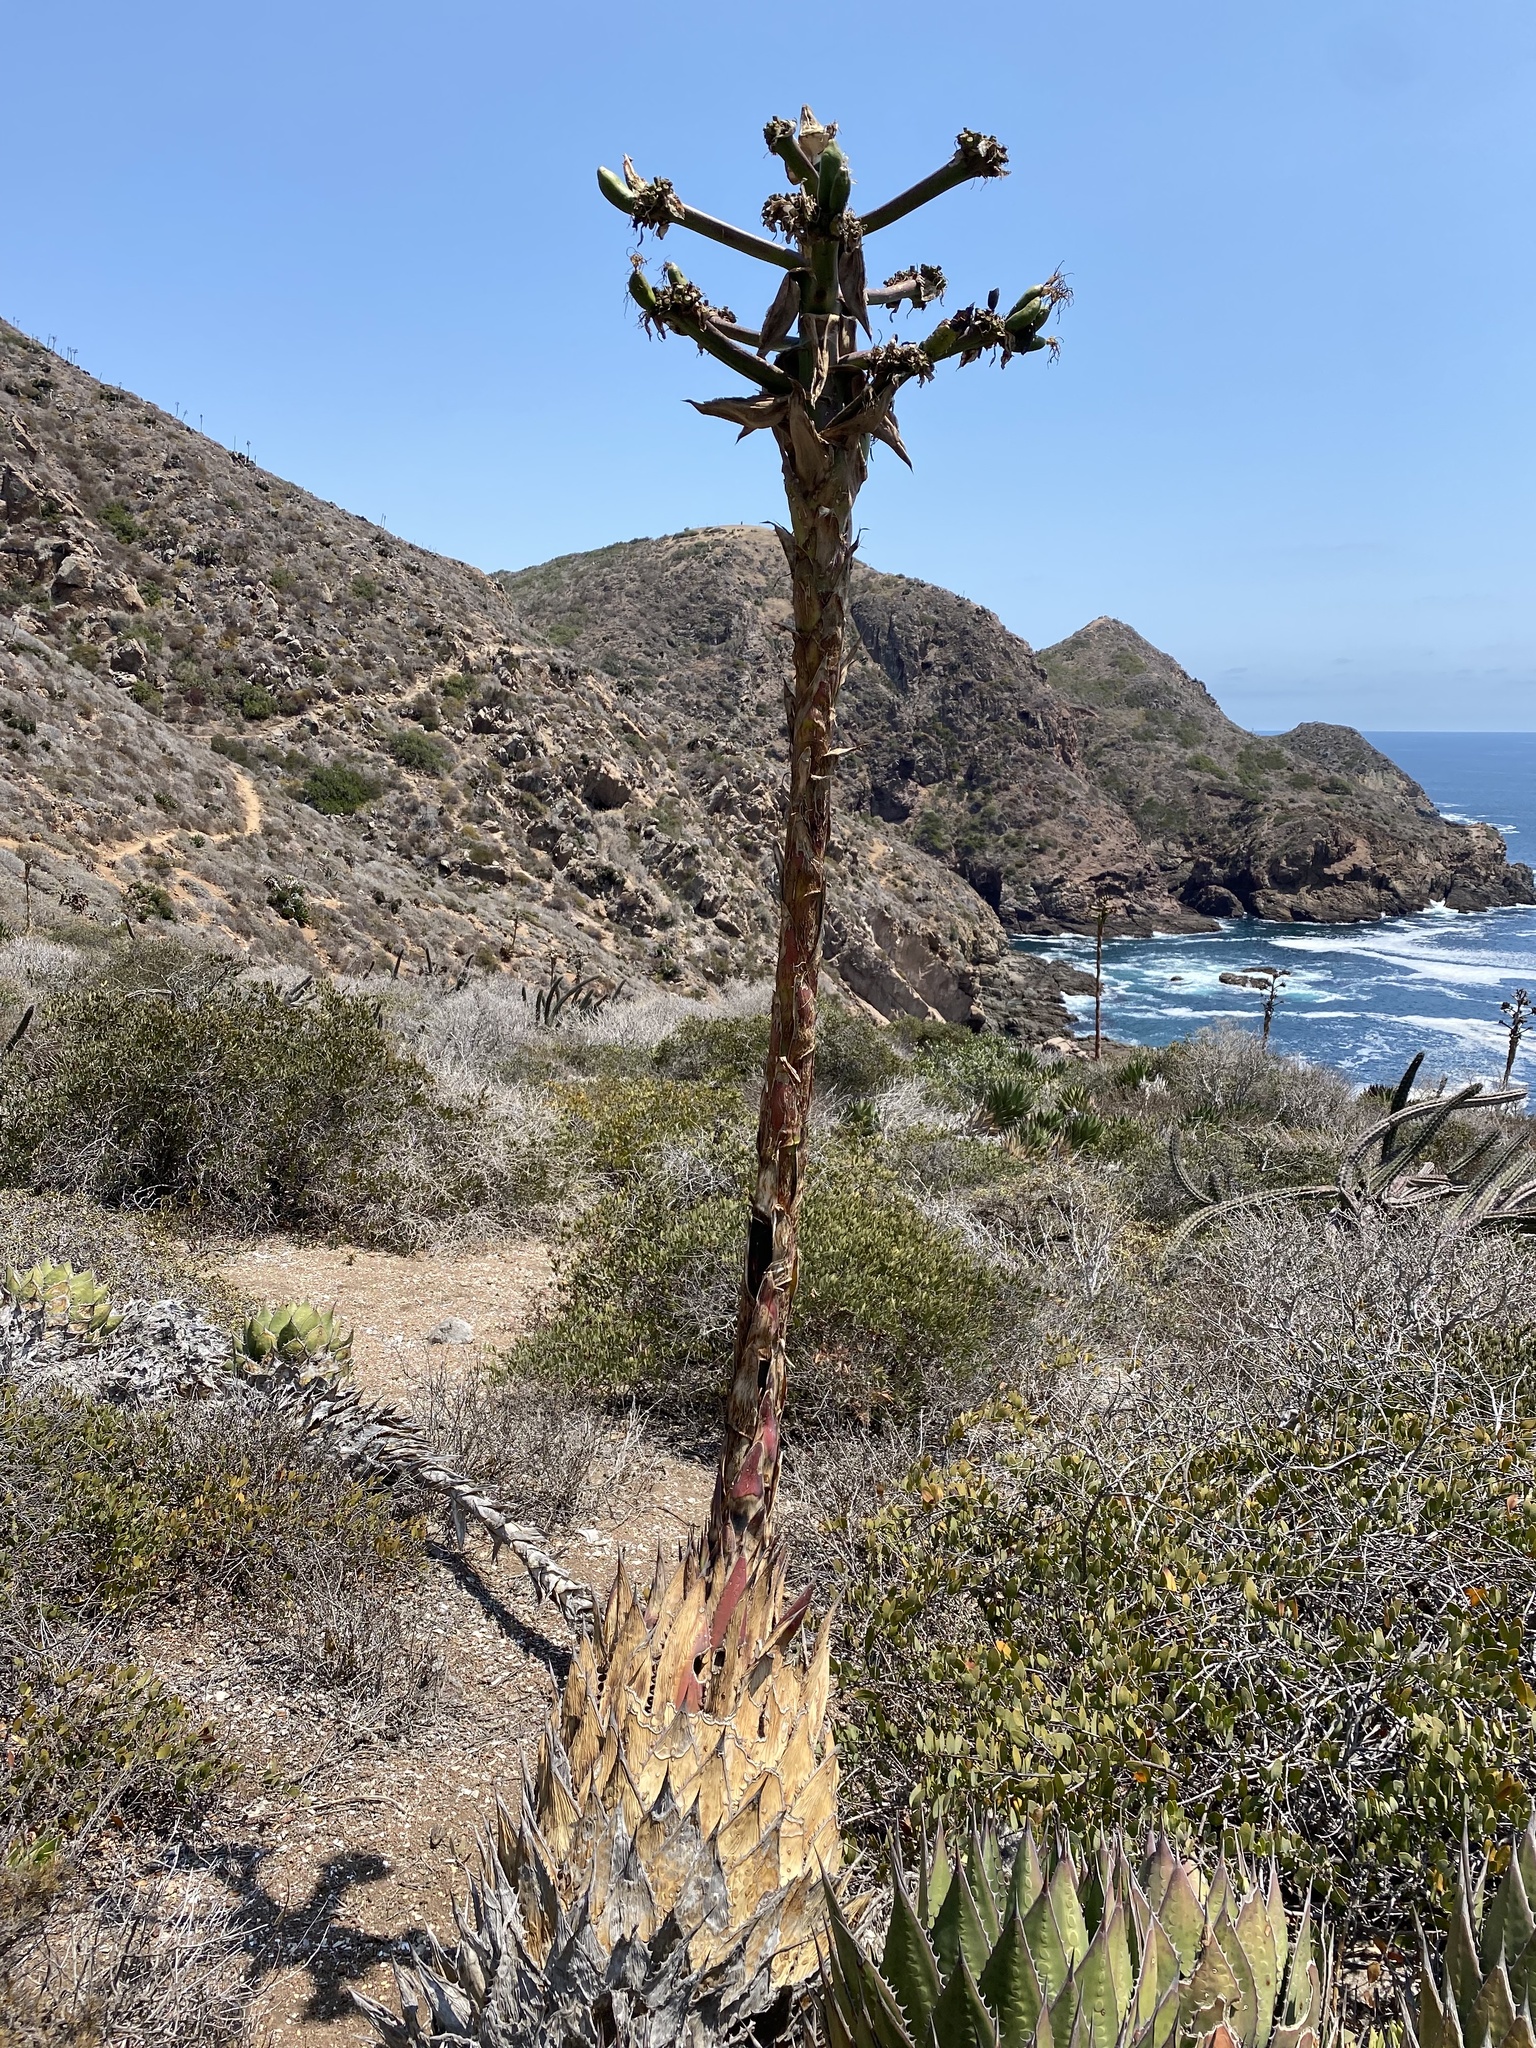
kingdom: Plantae
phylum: Tracheophyta
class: Liliopsida
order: Asparagales
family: Asparagaceae
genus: Agave
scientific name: Agave shawii
